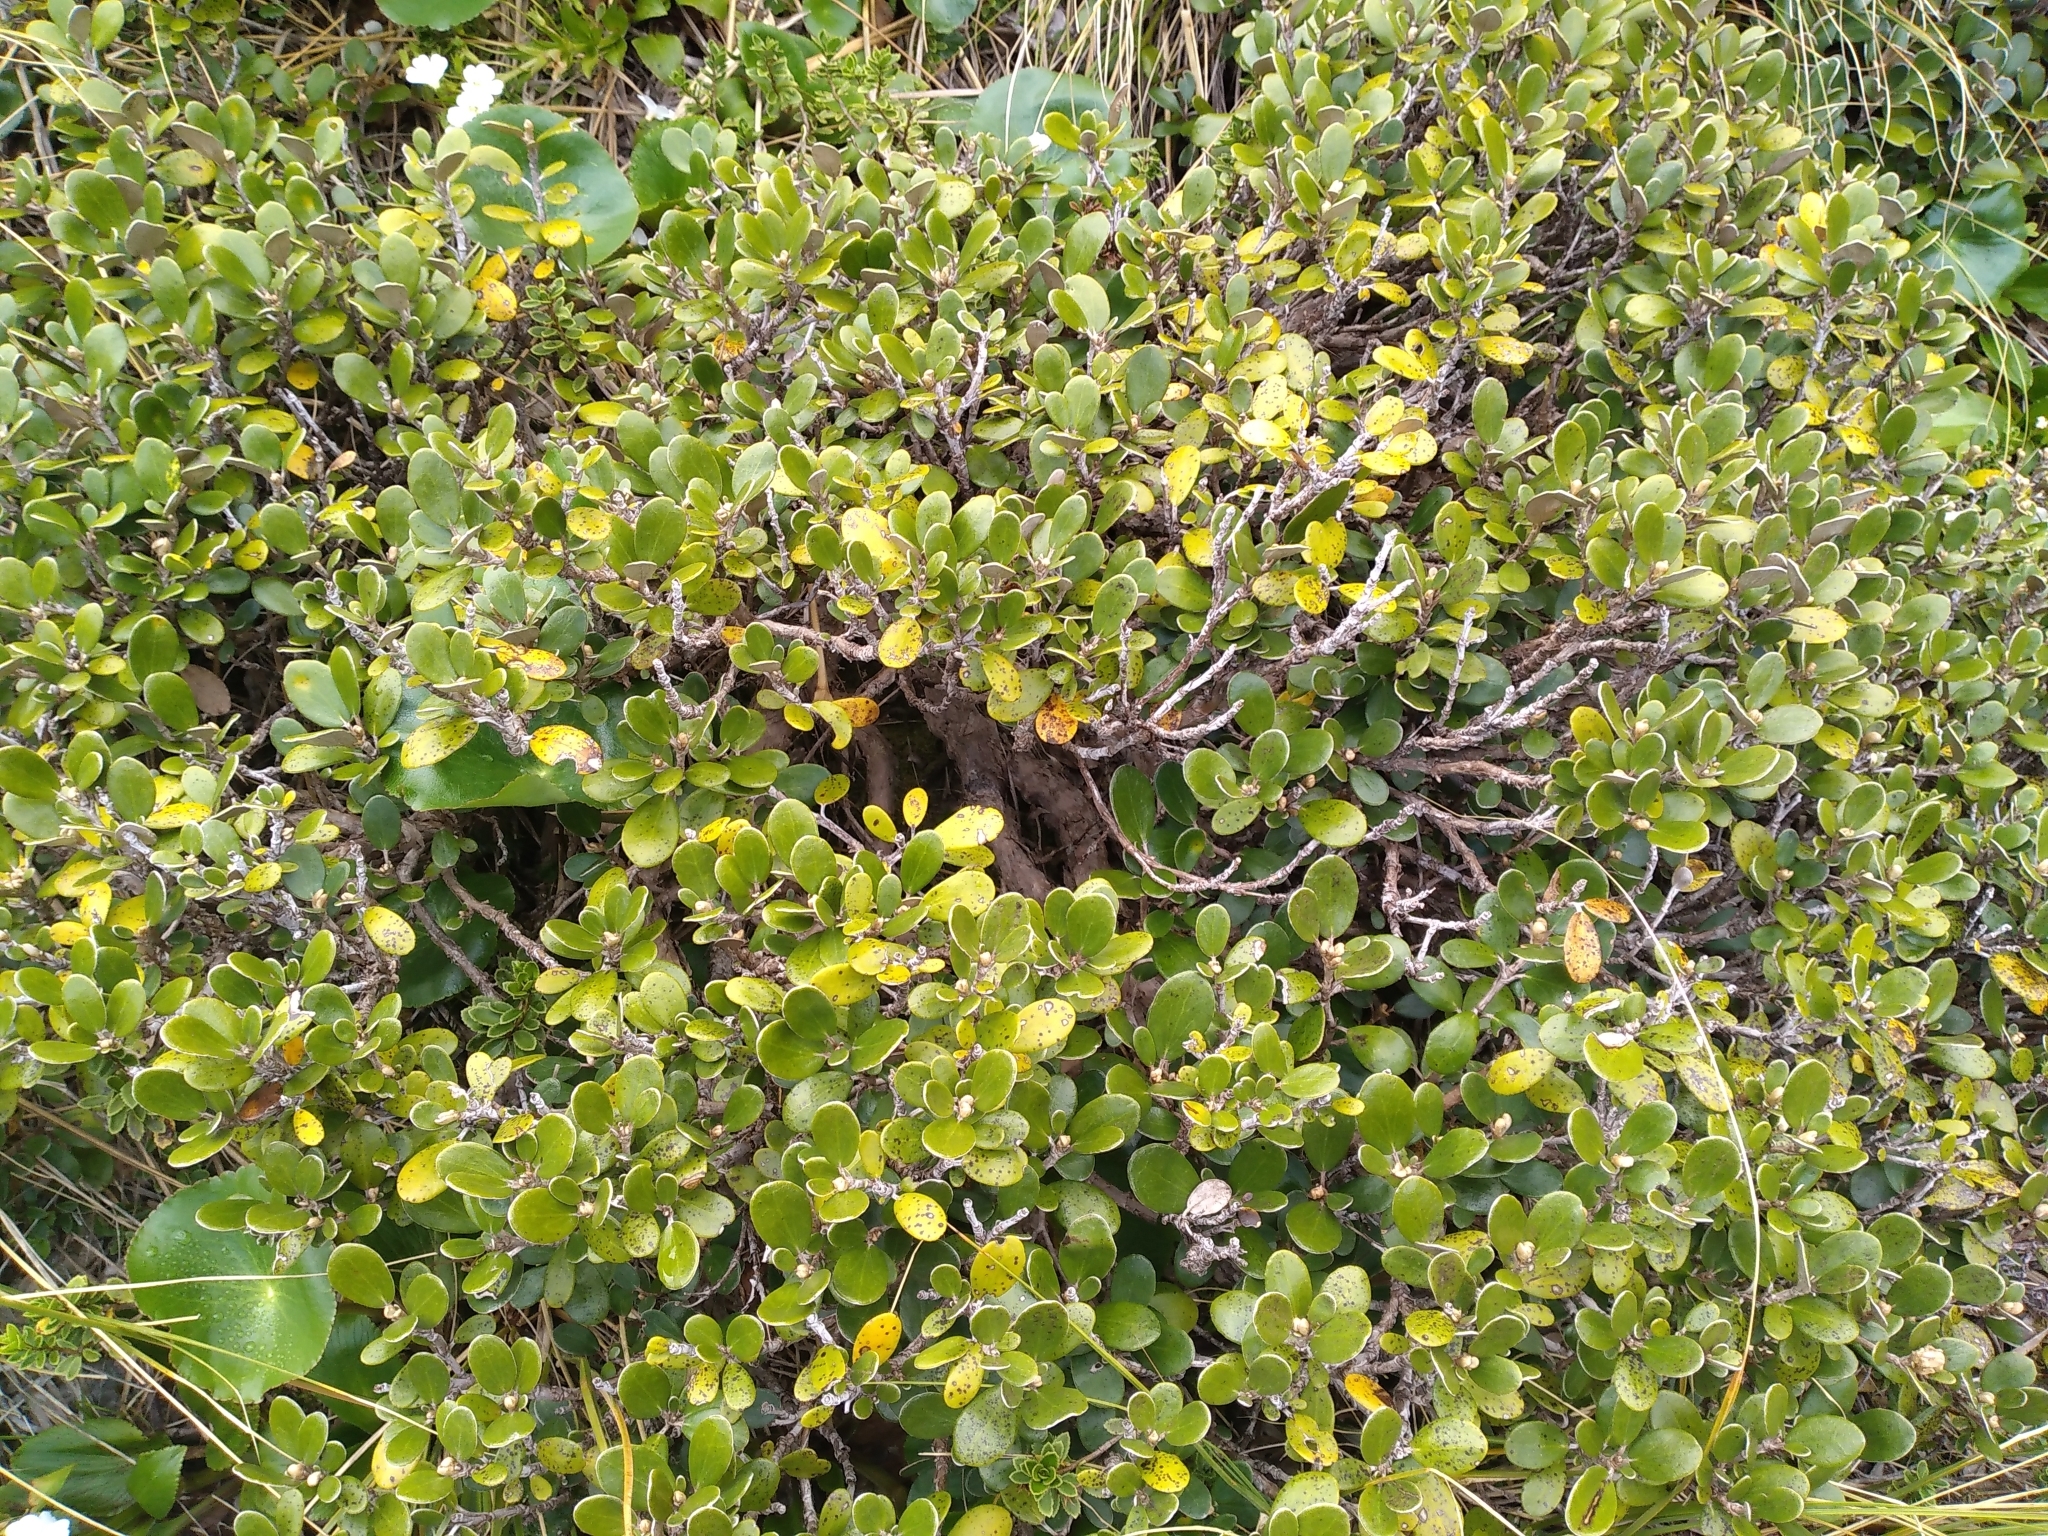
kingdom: Plantae
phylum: Tracheophyta
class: Magnoliopsida
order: Asterales
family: Asteraceae
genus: Brachyglottis
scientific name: Brachyglottis bidwillii
